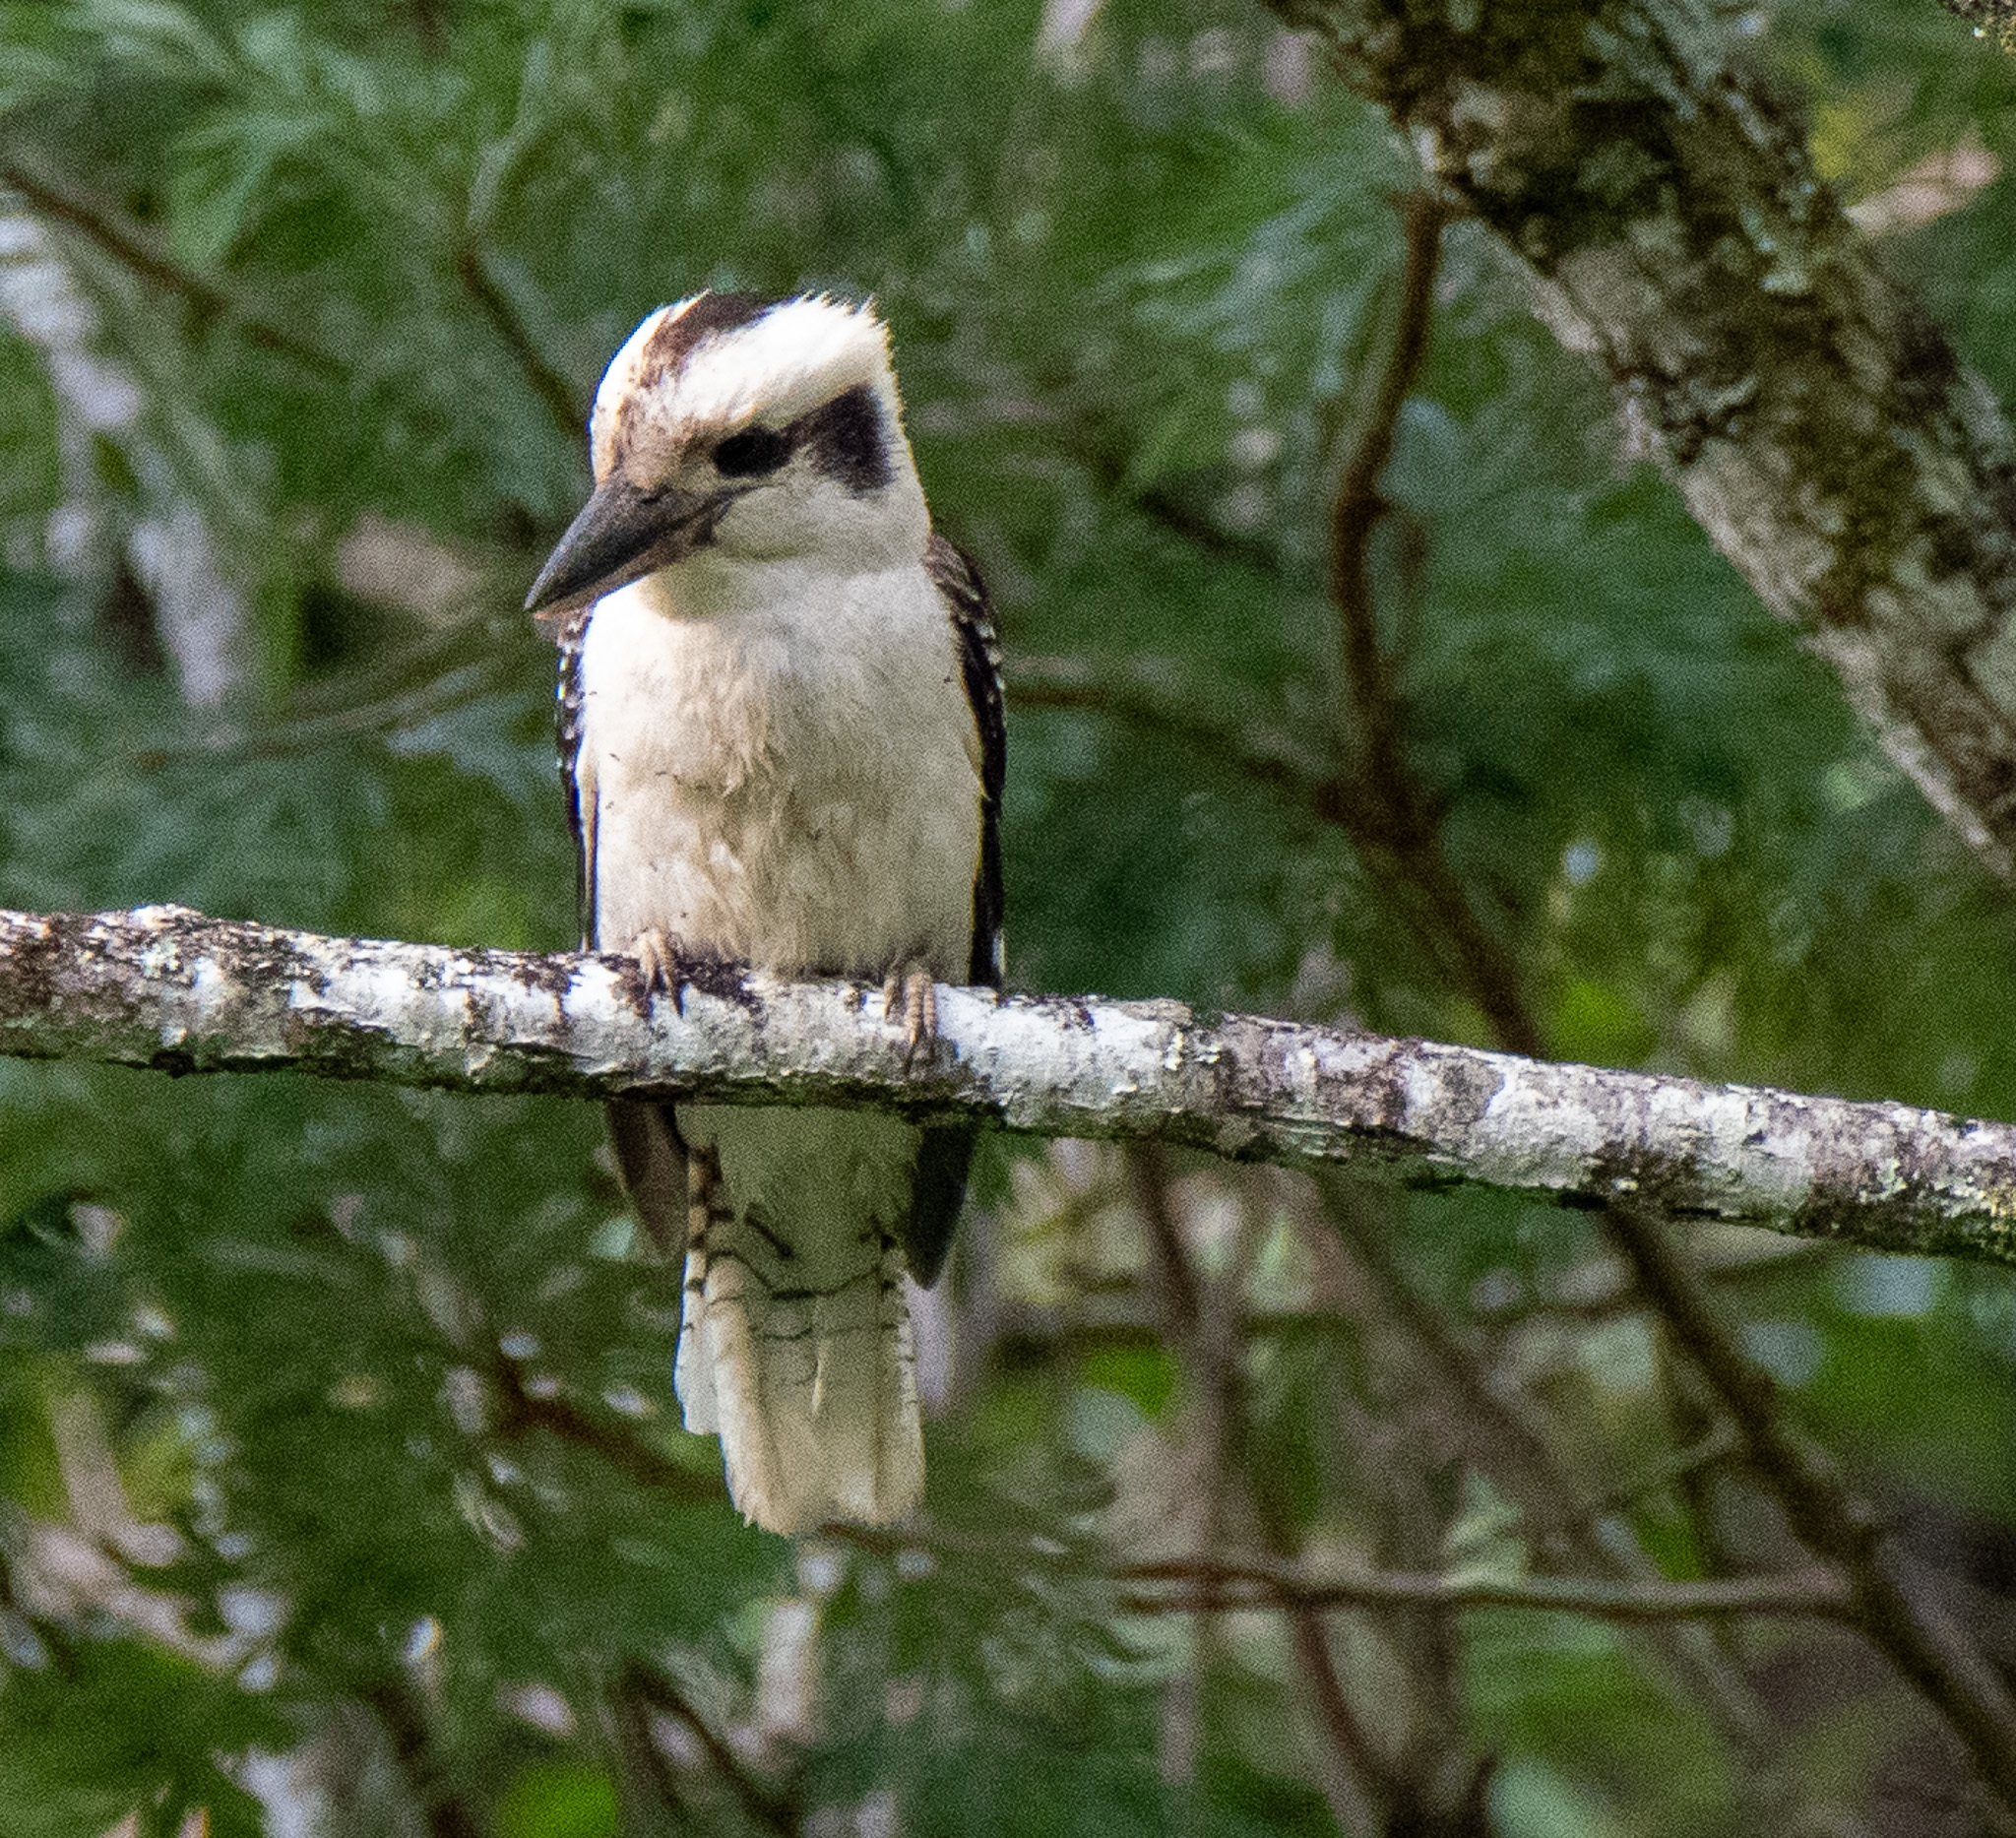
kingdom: Animalia
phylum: Chordata
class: Aves
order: Coraciiformes
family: Alcedinidae
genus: Dacelo
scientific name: Dacelo novaeguineae
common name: Laughing kookaburra
